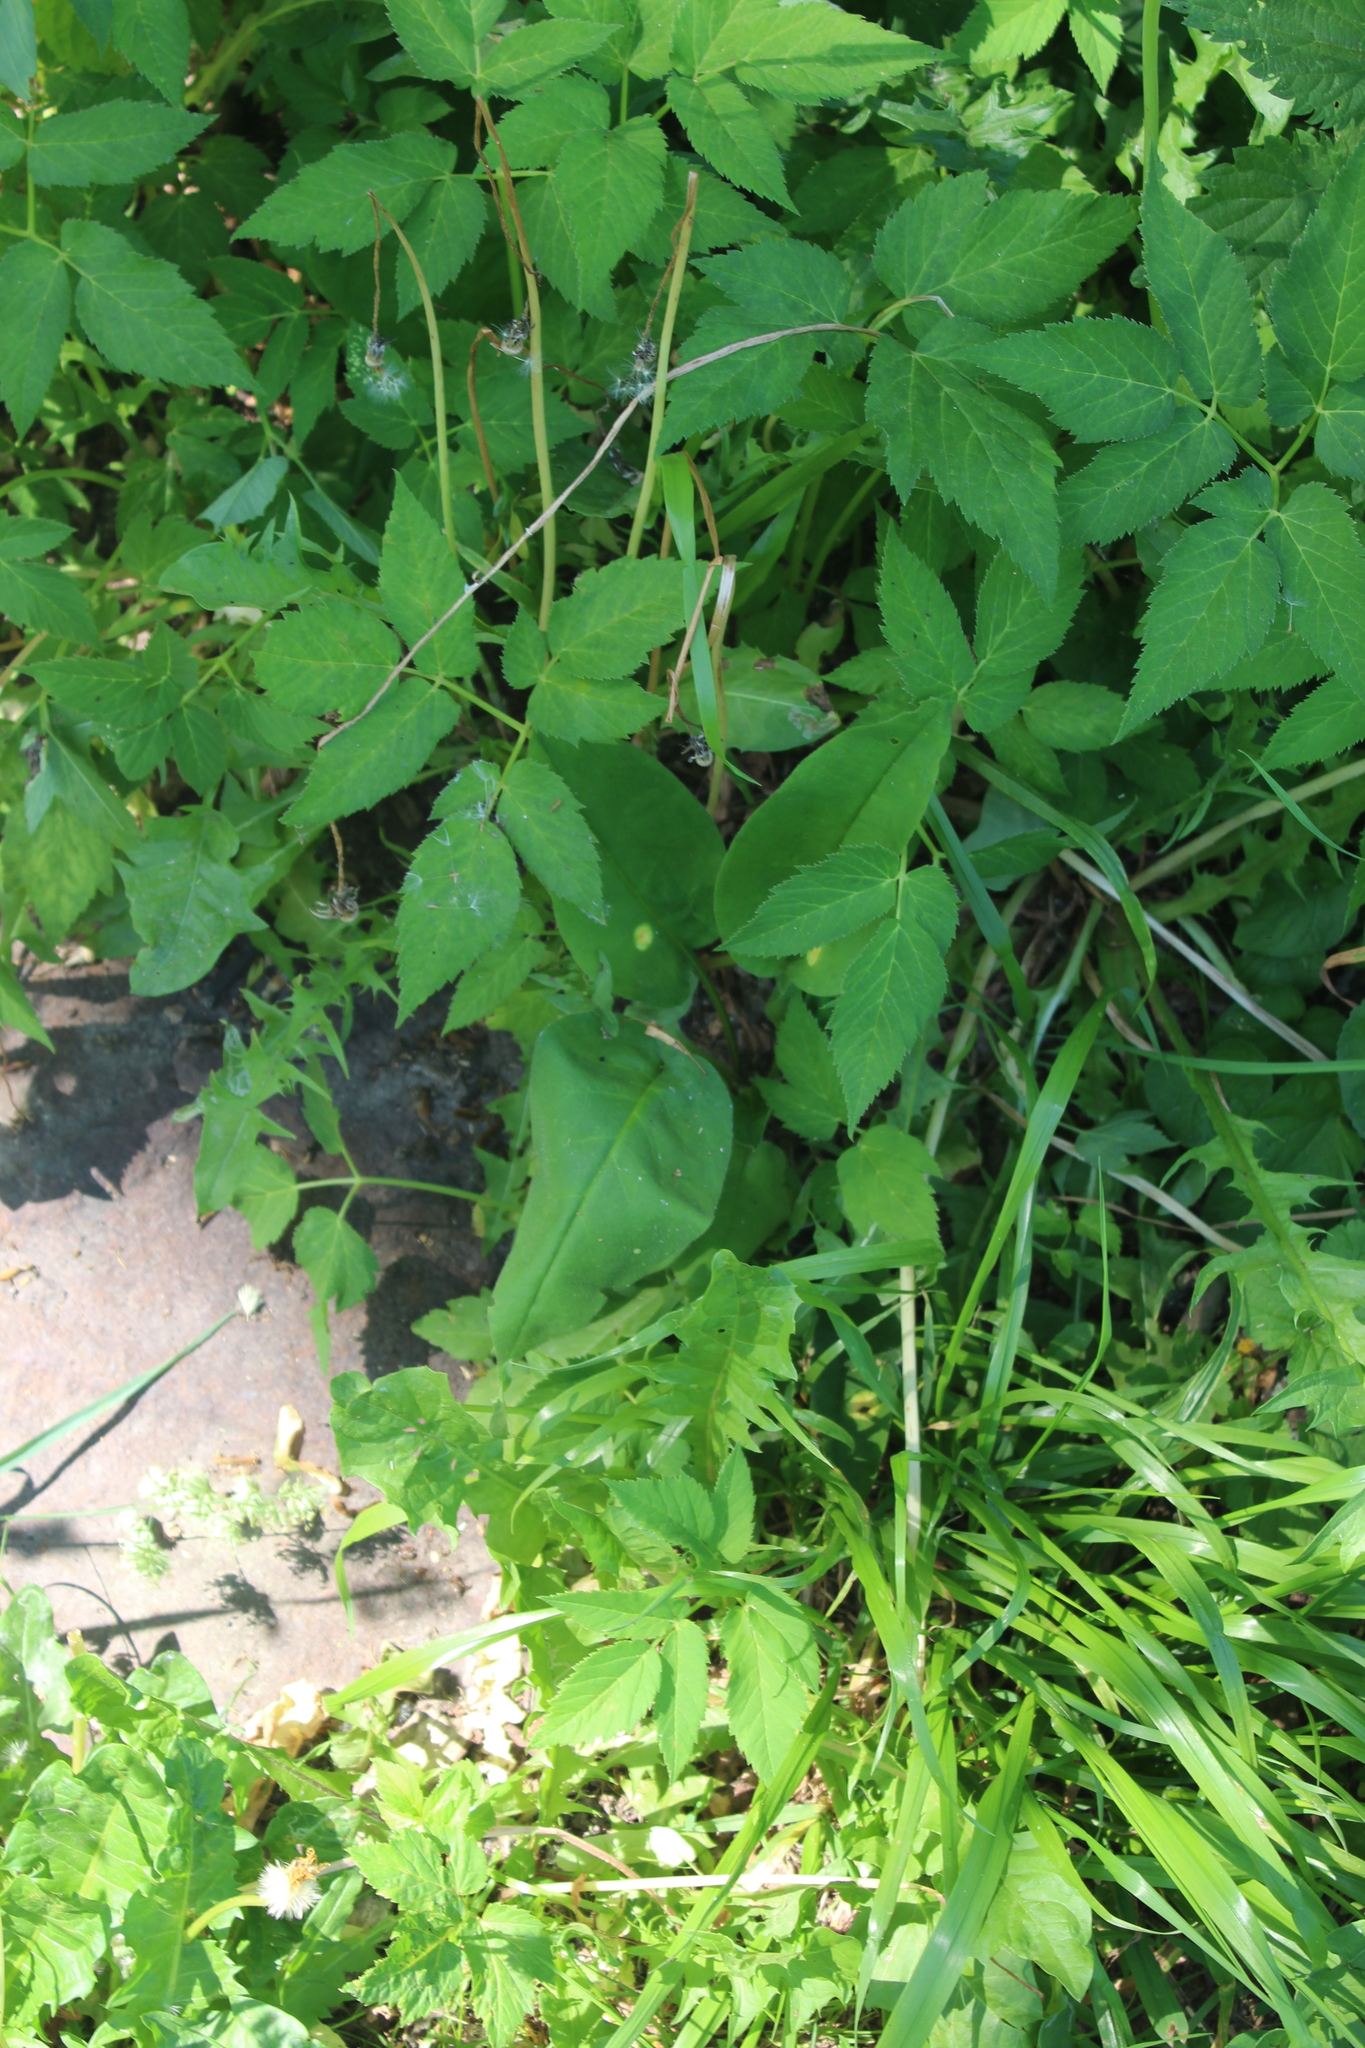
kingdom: Plantae
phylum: Tracheophyta
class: Magnoliopsida
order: Apiales
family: Apiaceae
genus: Aegopodium
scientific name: Aegopodium podagraria
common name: Ground-elder
